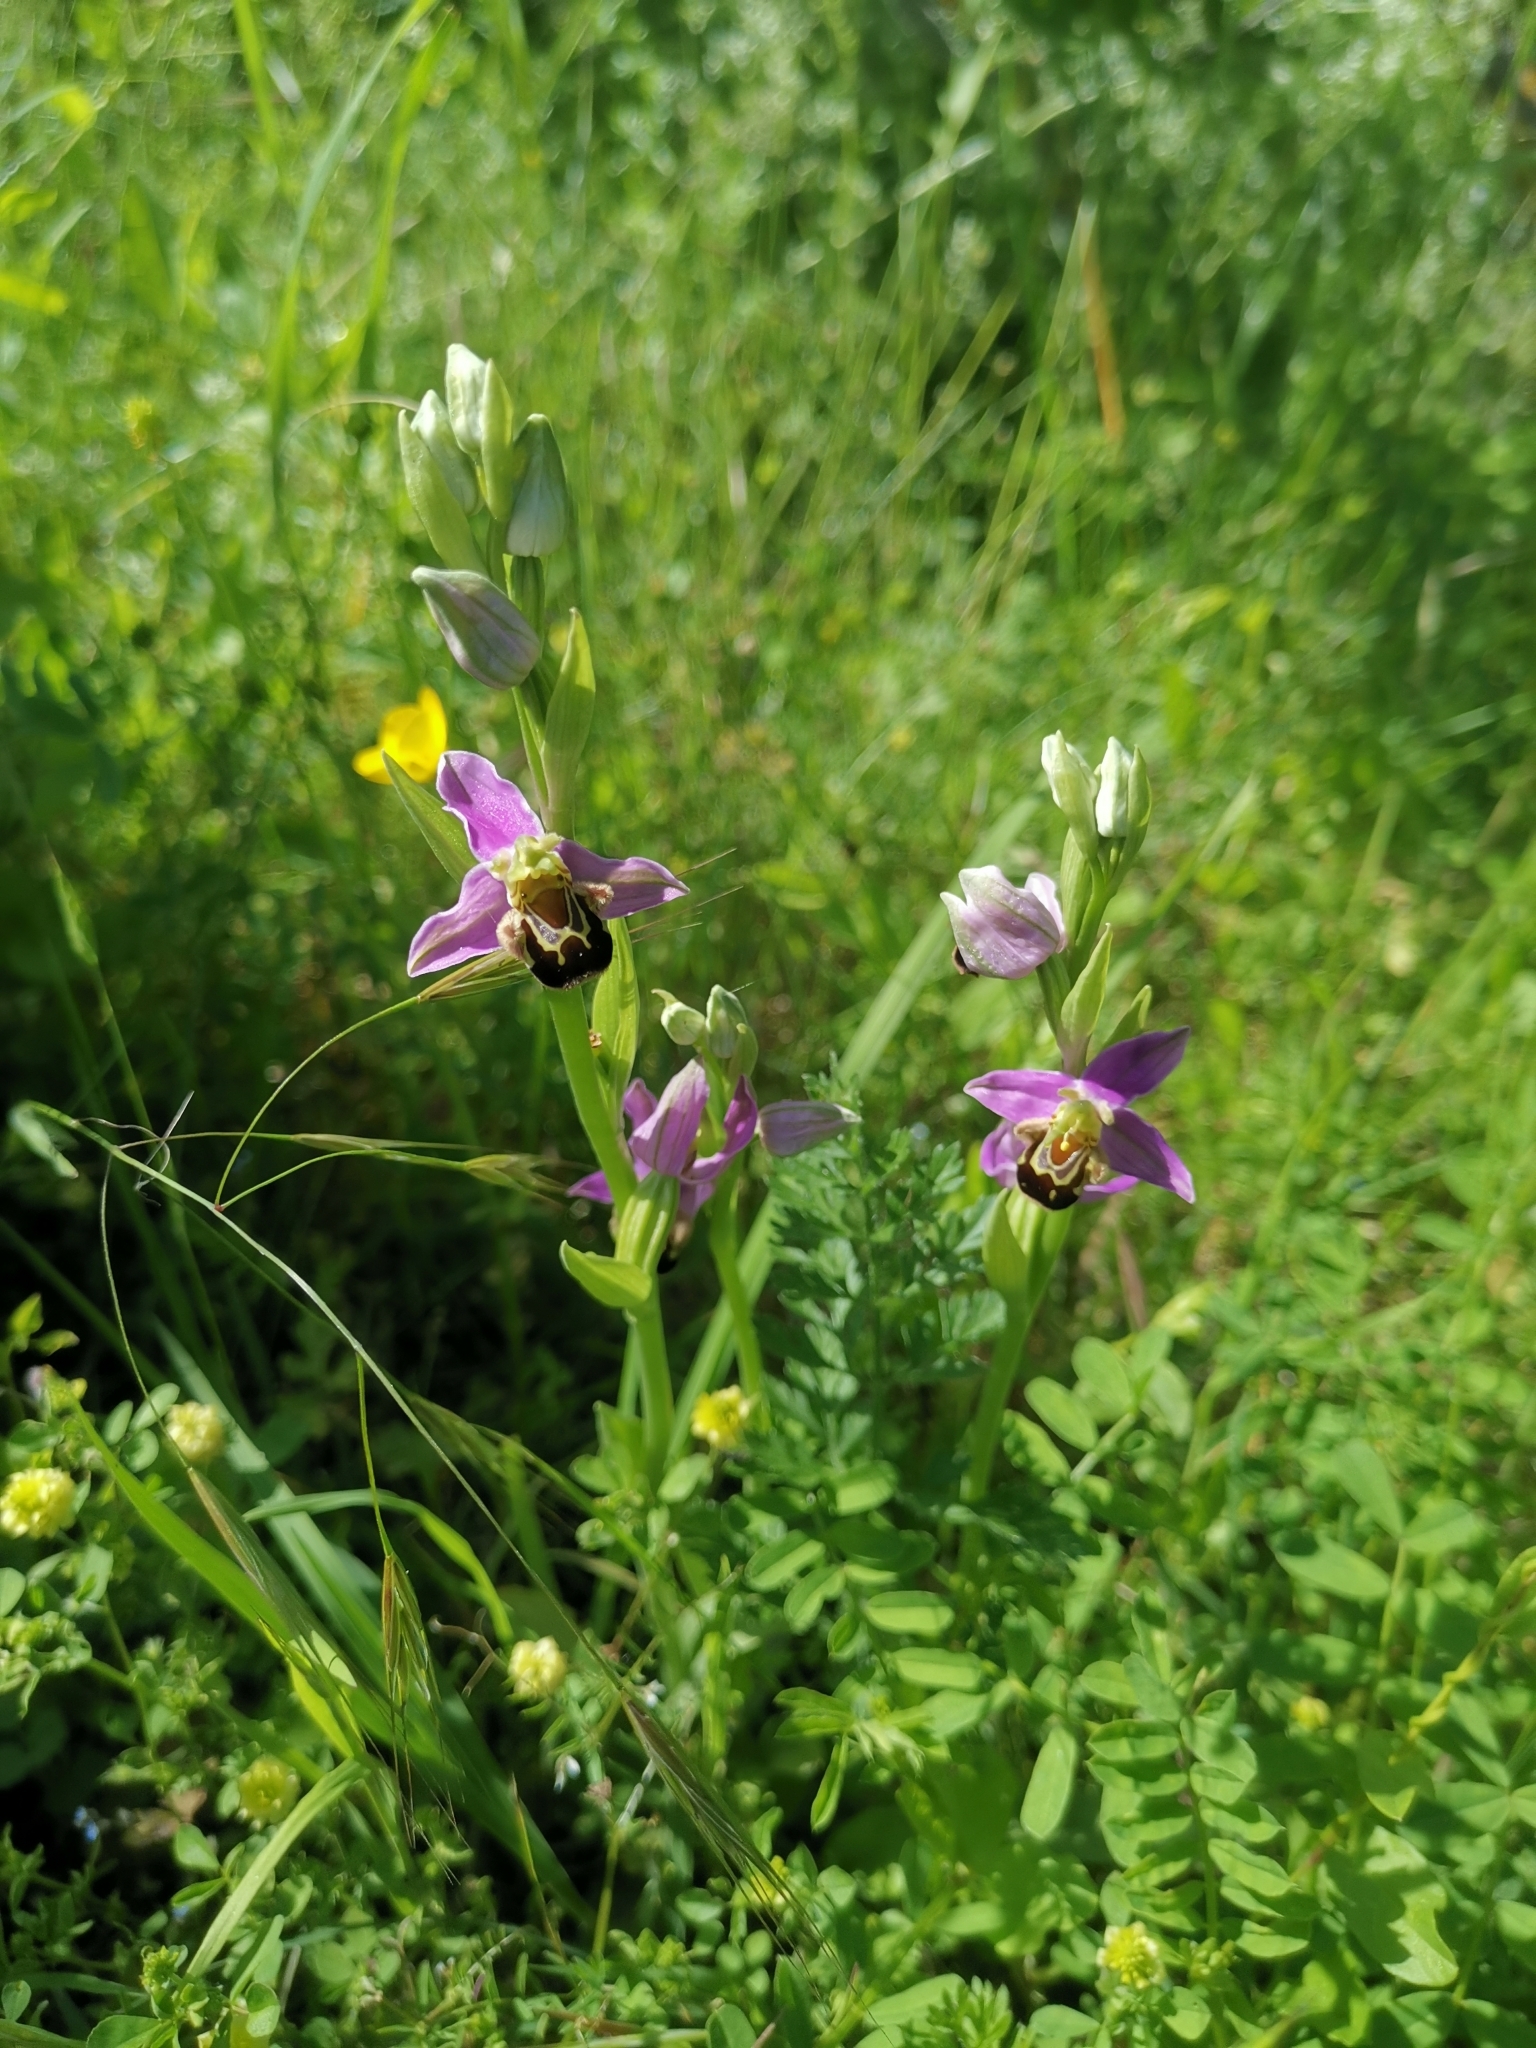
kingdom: Plantae
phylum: Tracheophyta
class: Liliopsida
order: Asparagales
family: Orchidaceae
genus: Ophrys
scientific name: Ophrys apifera
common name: Bee orchid
